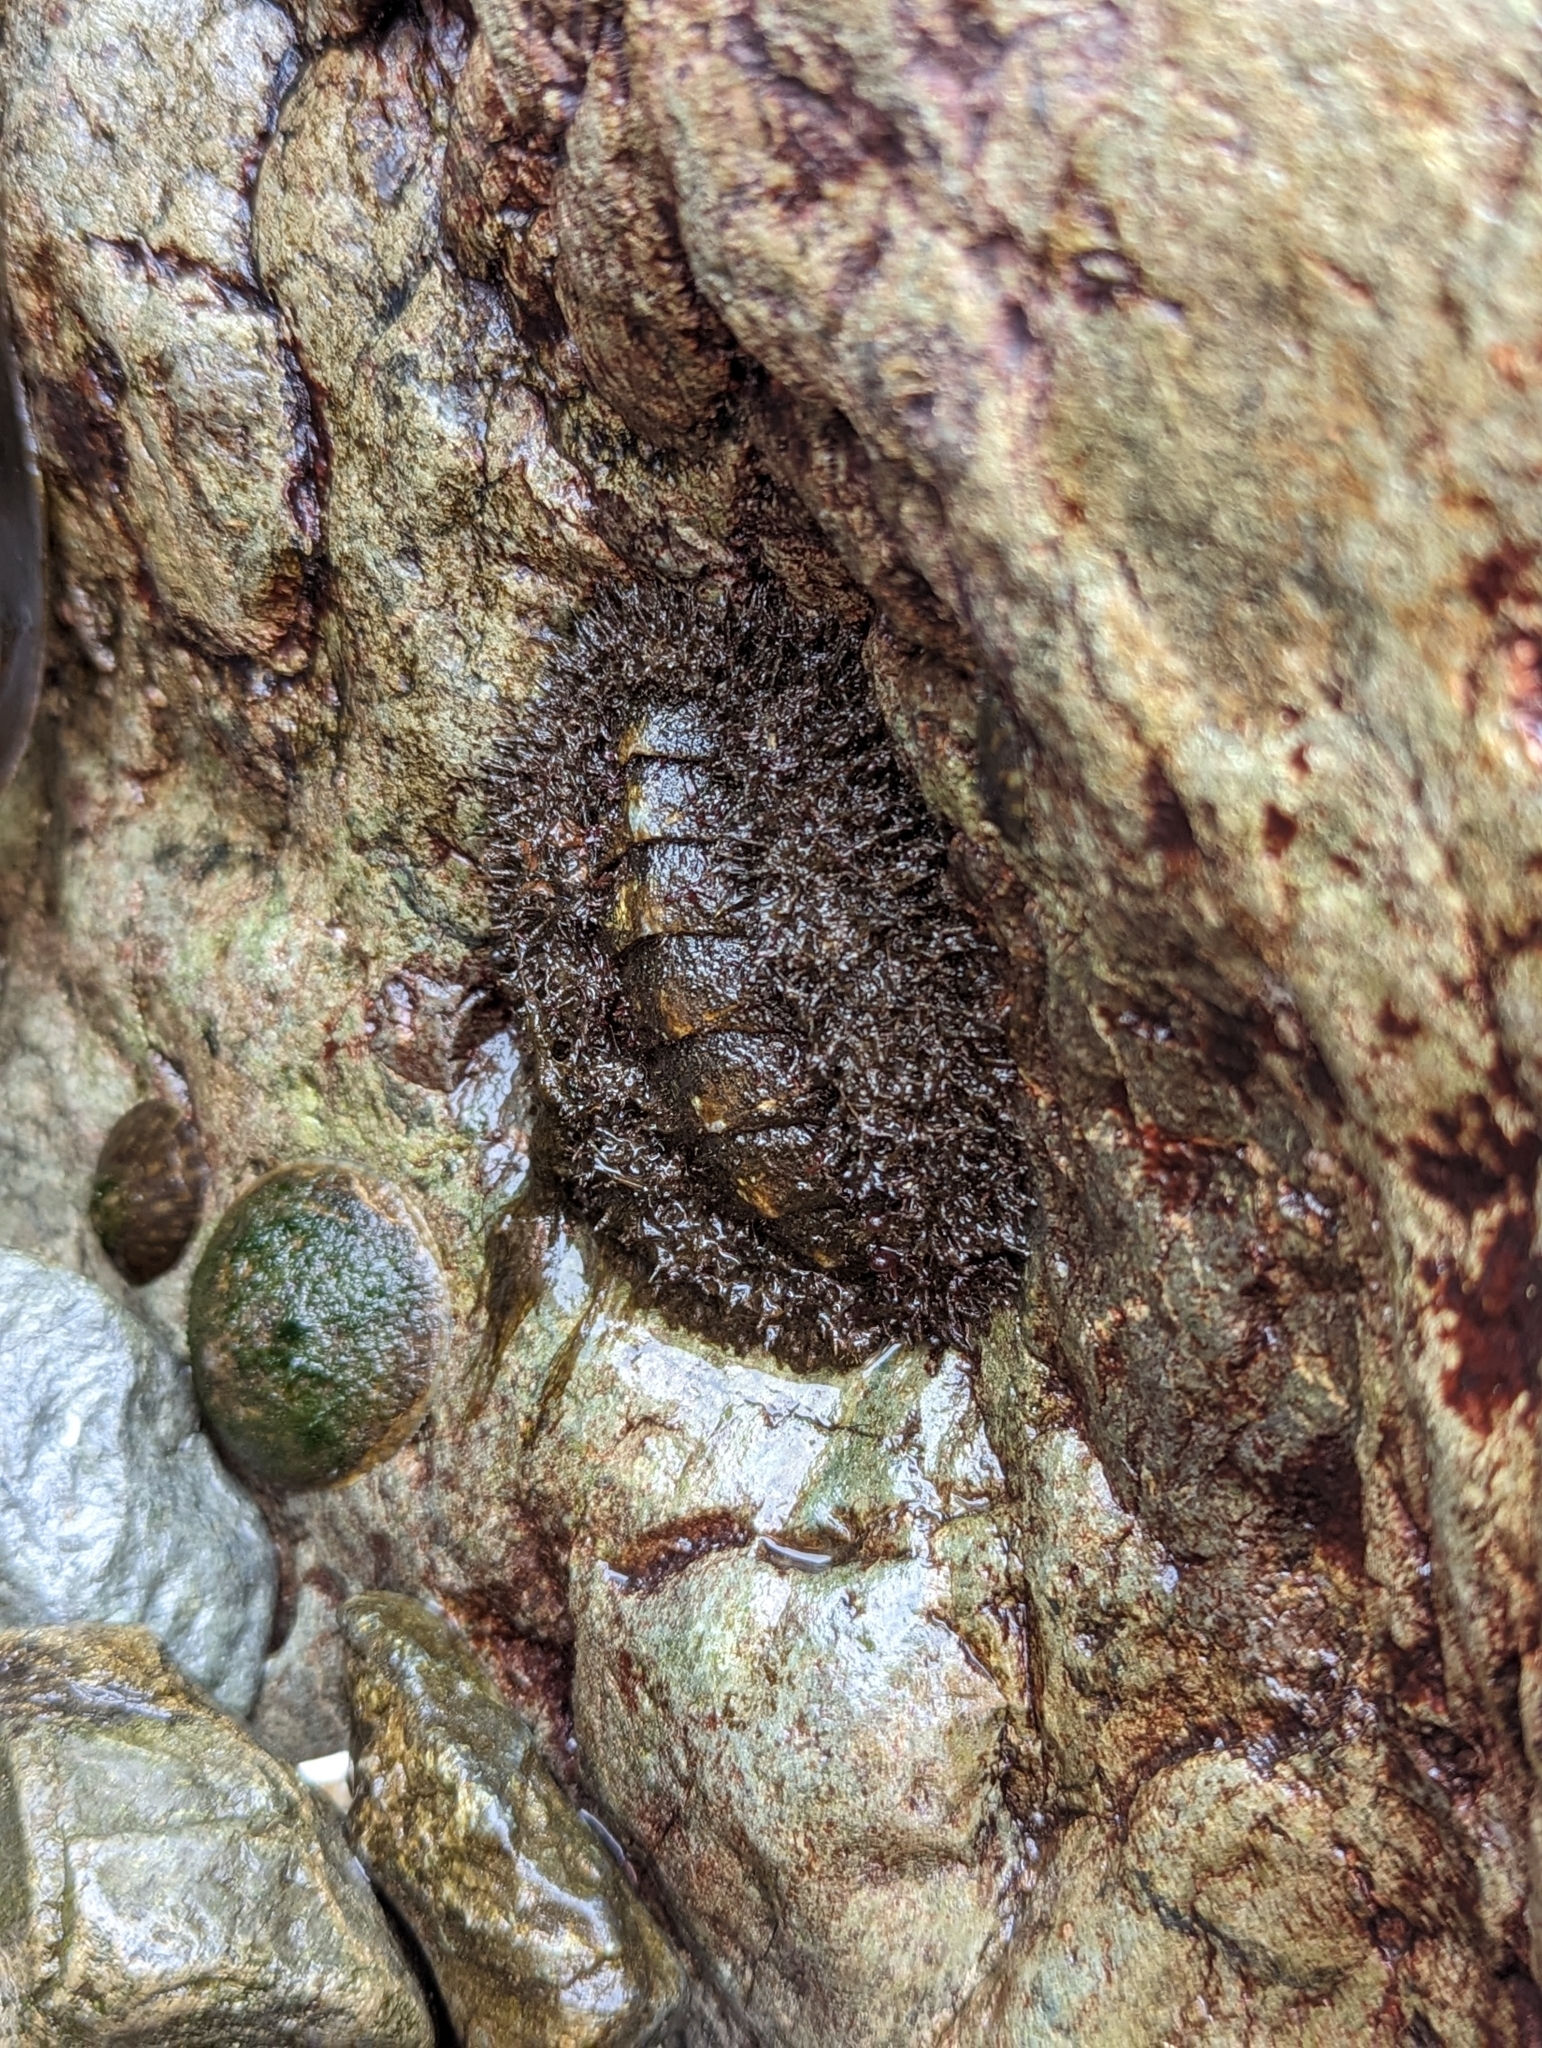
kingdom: Animalia
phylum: Mollusca
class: Polyplacophora
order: Chitonida
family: Mopaliidae
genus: Mopalia
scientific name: Mopalia muscosa
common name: Mossy chiton
